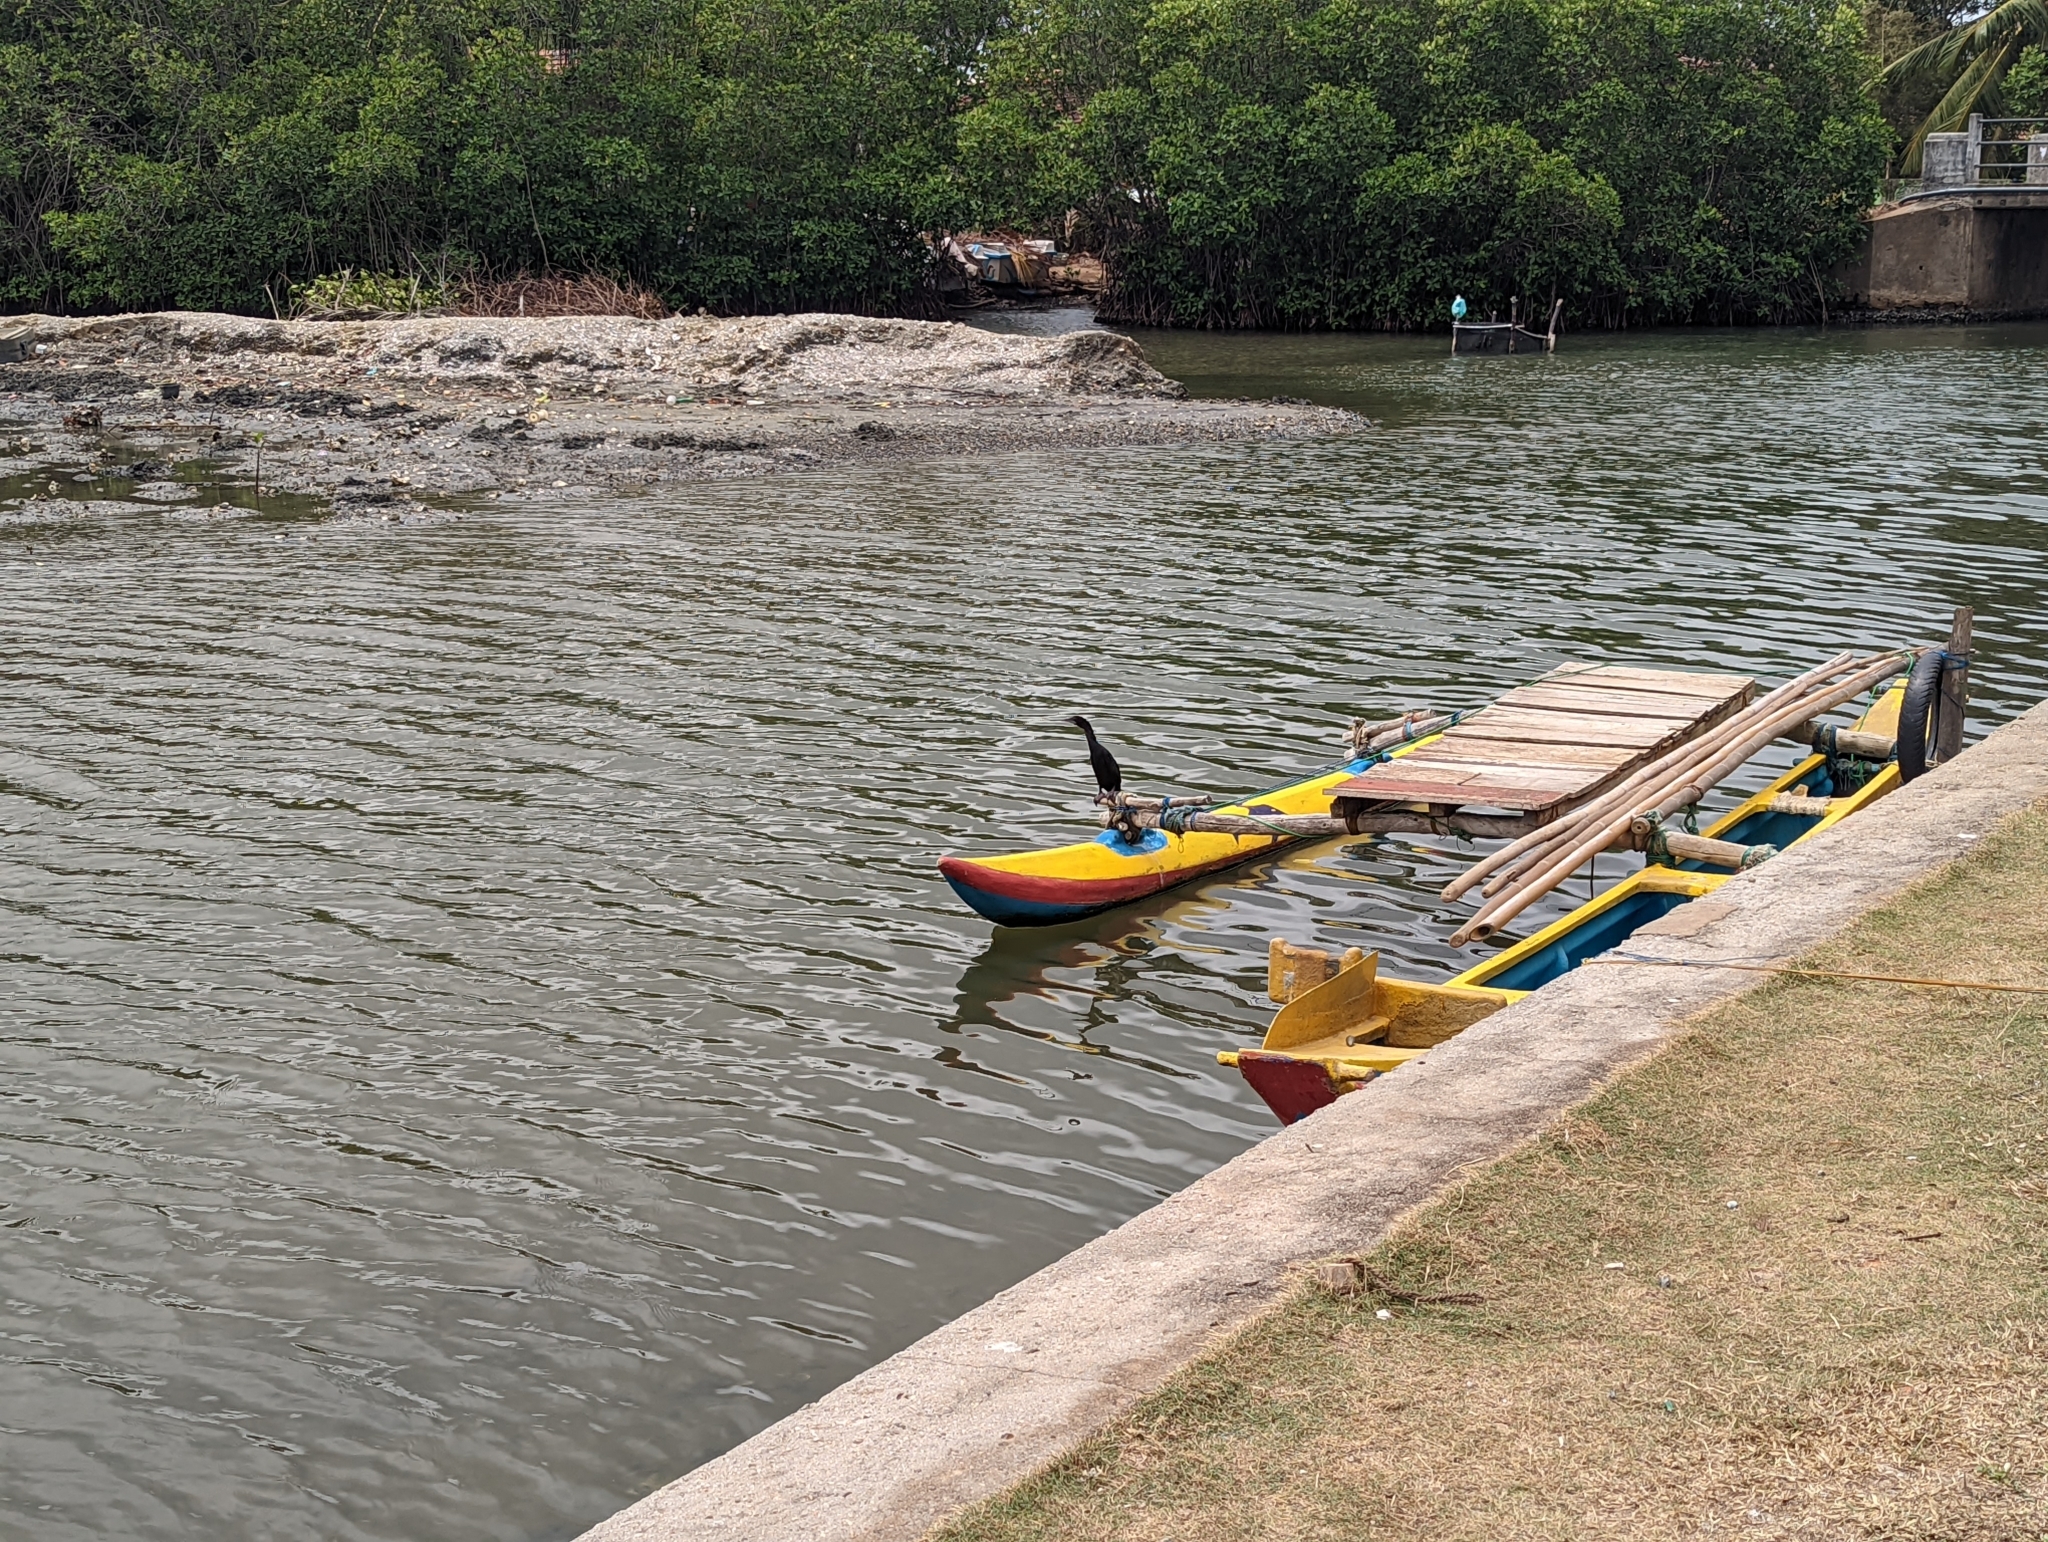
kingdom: Animalia
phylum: Chordata
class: Aves
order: Suliformes
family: Phalacrocoracidae
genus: Microcarbo
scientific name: Microcarbo niger
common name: Little cormorant
